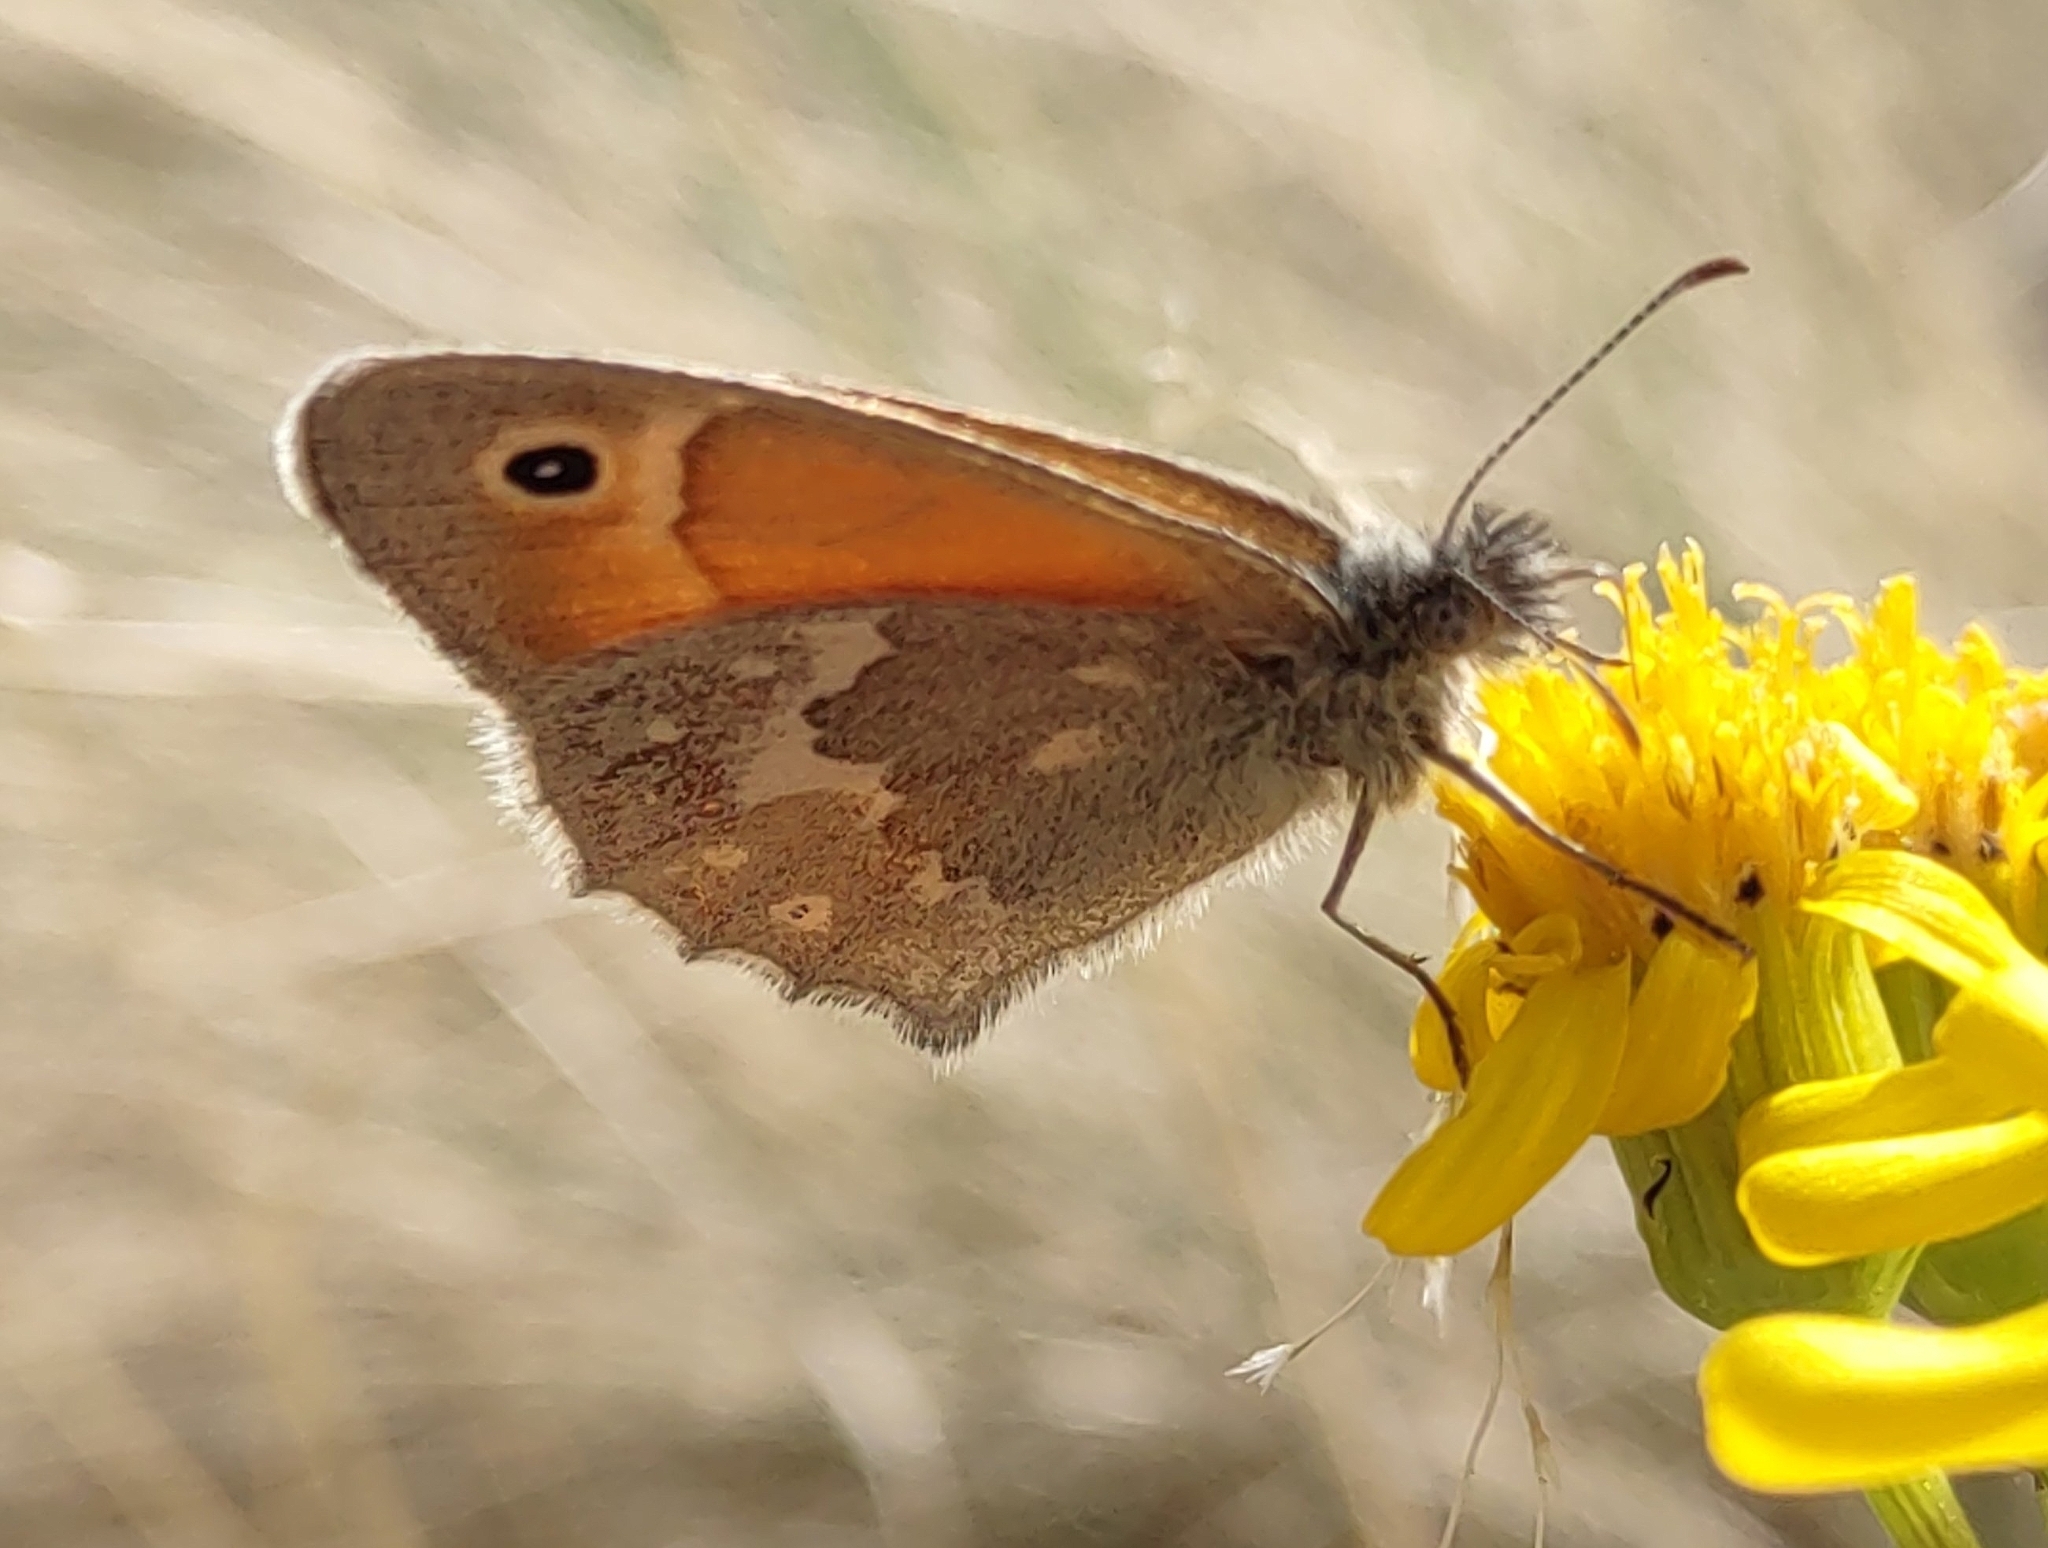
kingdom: Animalia
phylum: Arthropoda
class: Insecta
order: Lepidoptera
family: Nymphalidae
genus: Coenonympha
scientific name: Coenonympha california
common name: Common ringlet
